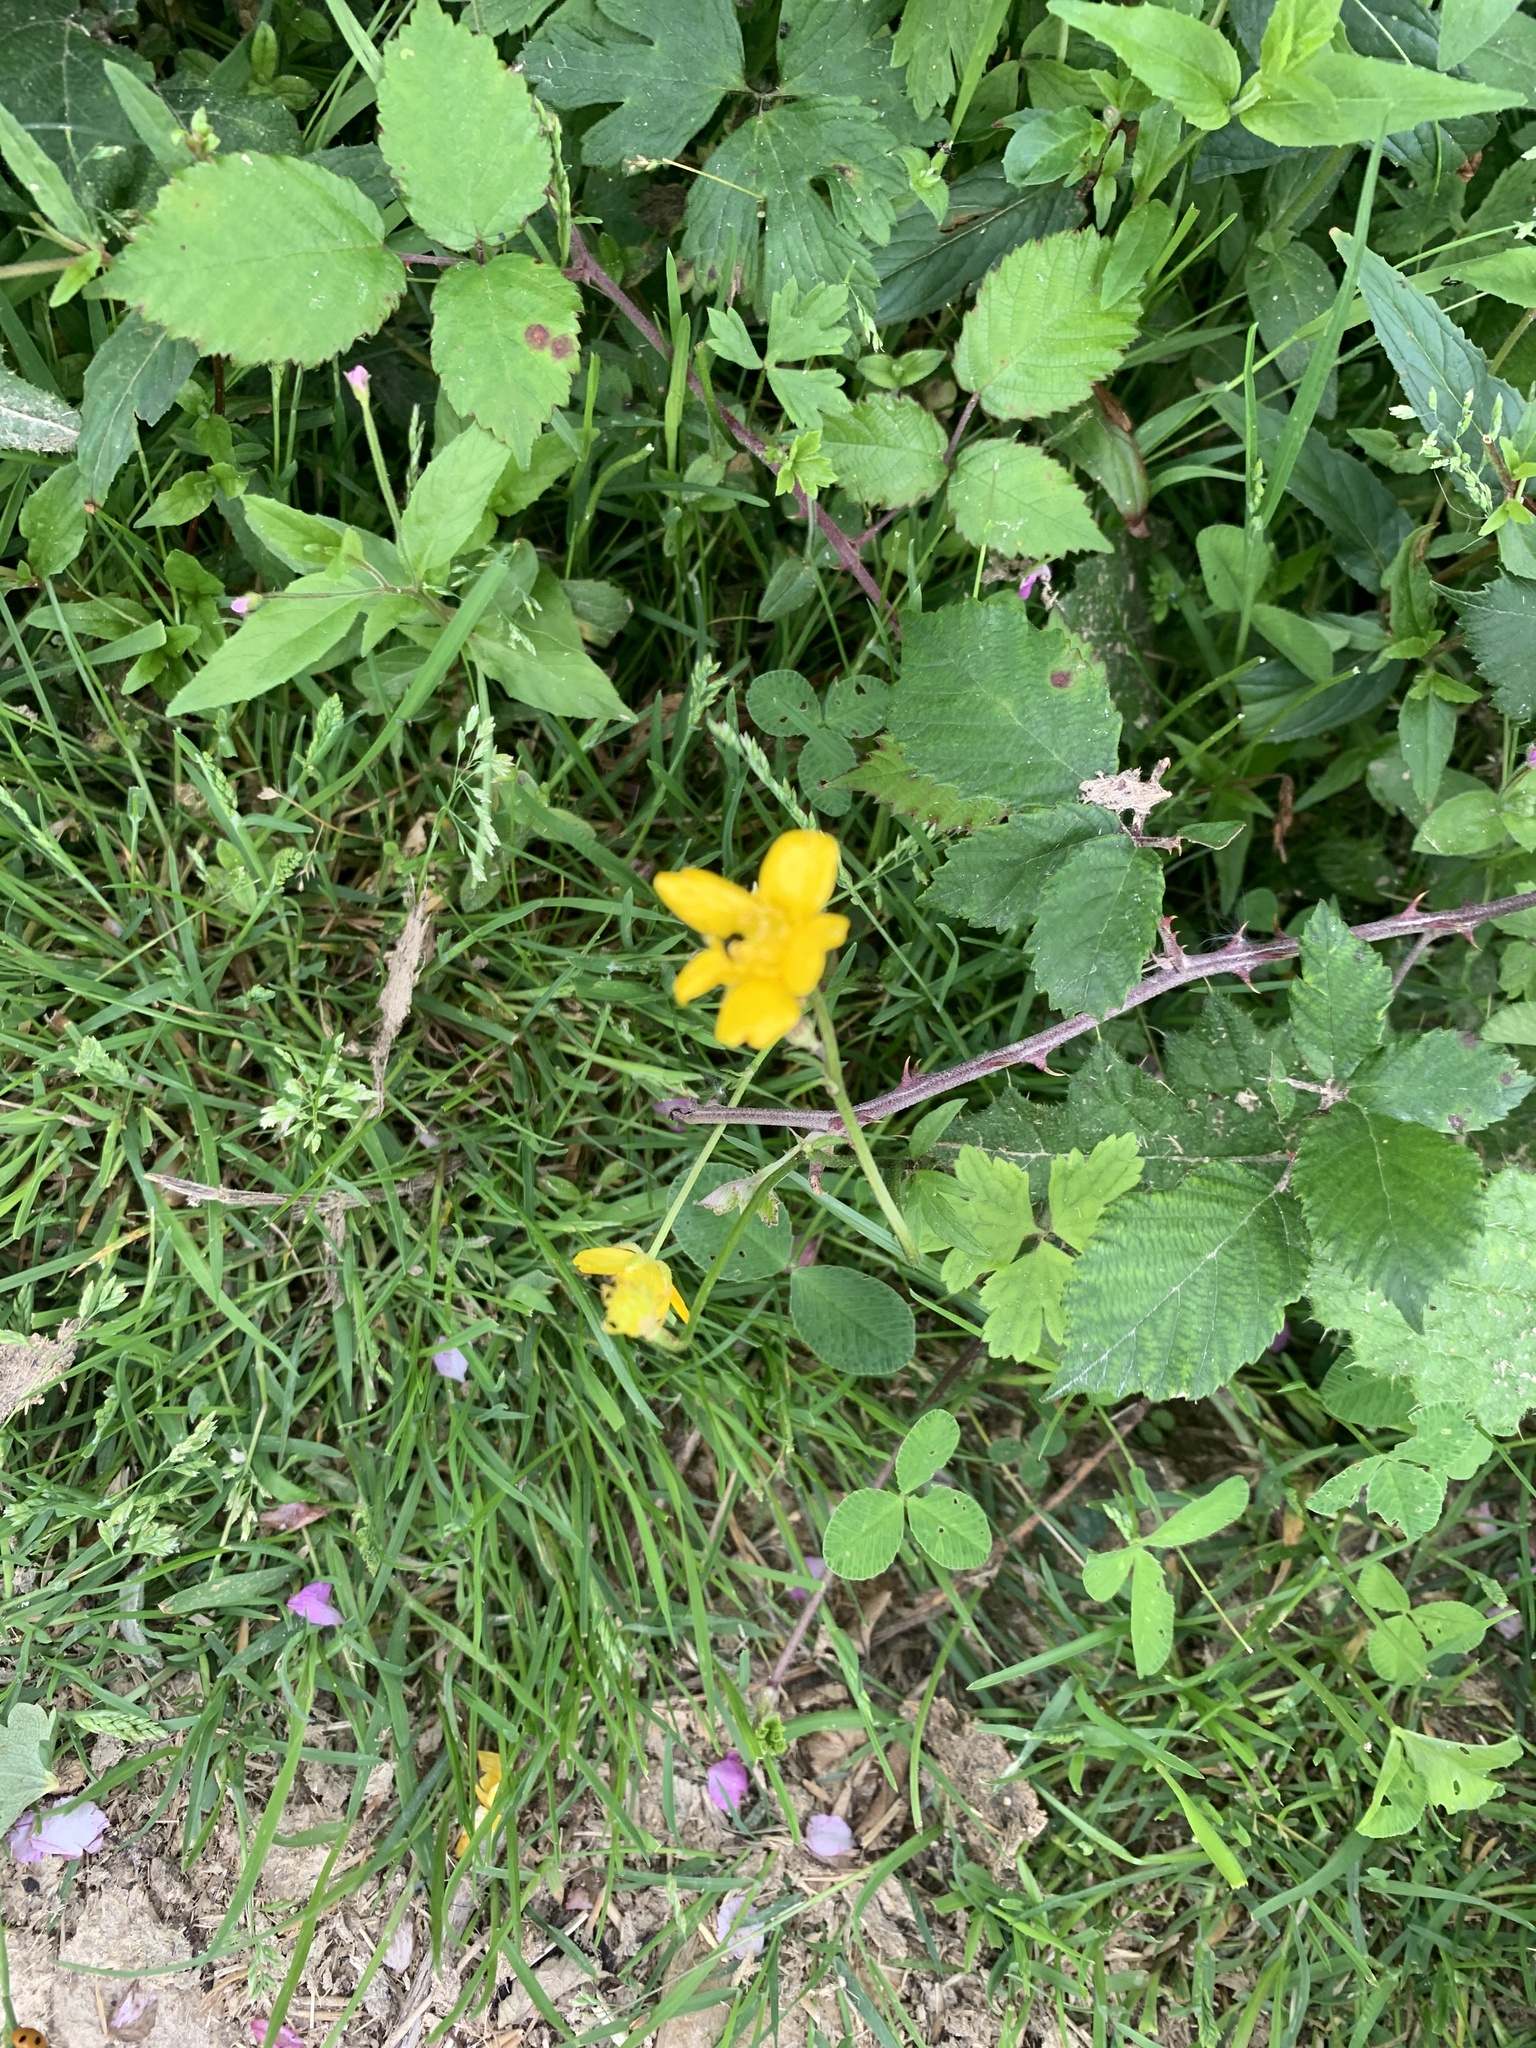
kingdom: Plantae
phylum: Tracheophyta
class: Magnoliopsida
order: Ranunculales
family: Ranunculaceae
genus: Ranunculus
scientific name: Ranunculus acris
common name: Meadow buttercup
